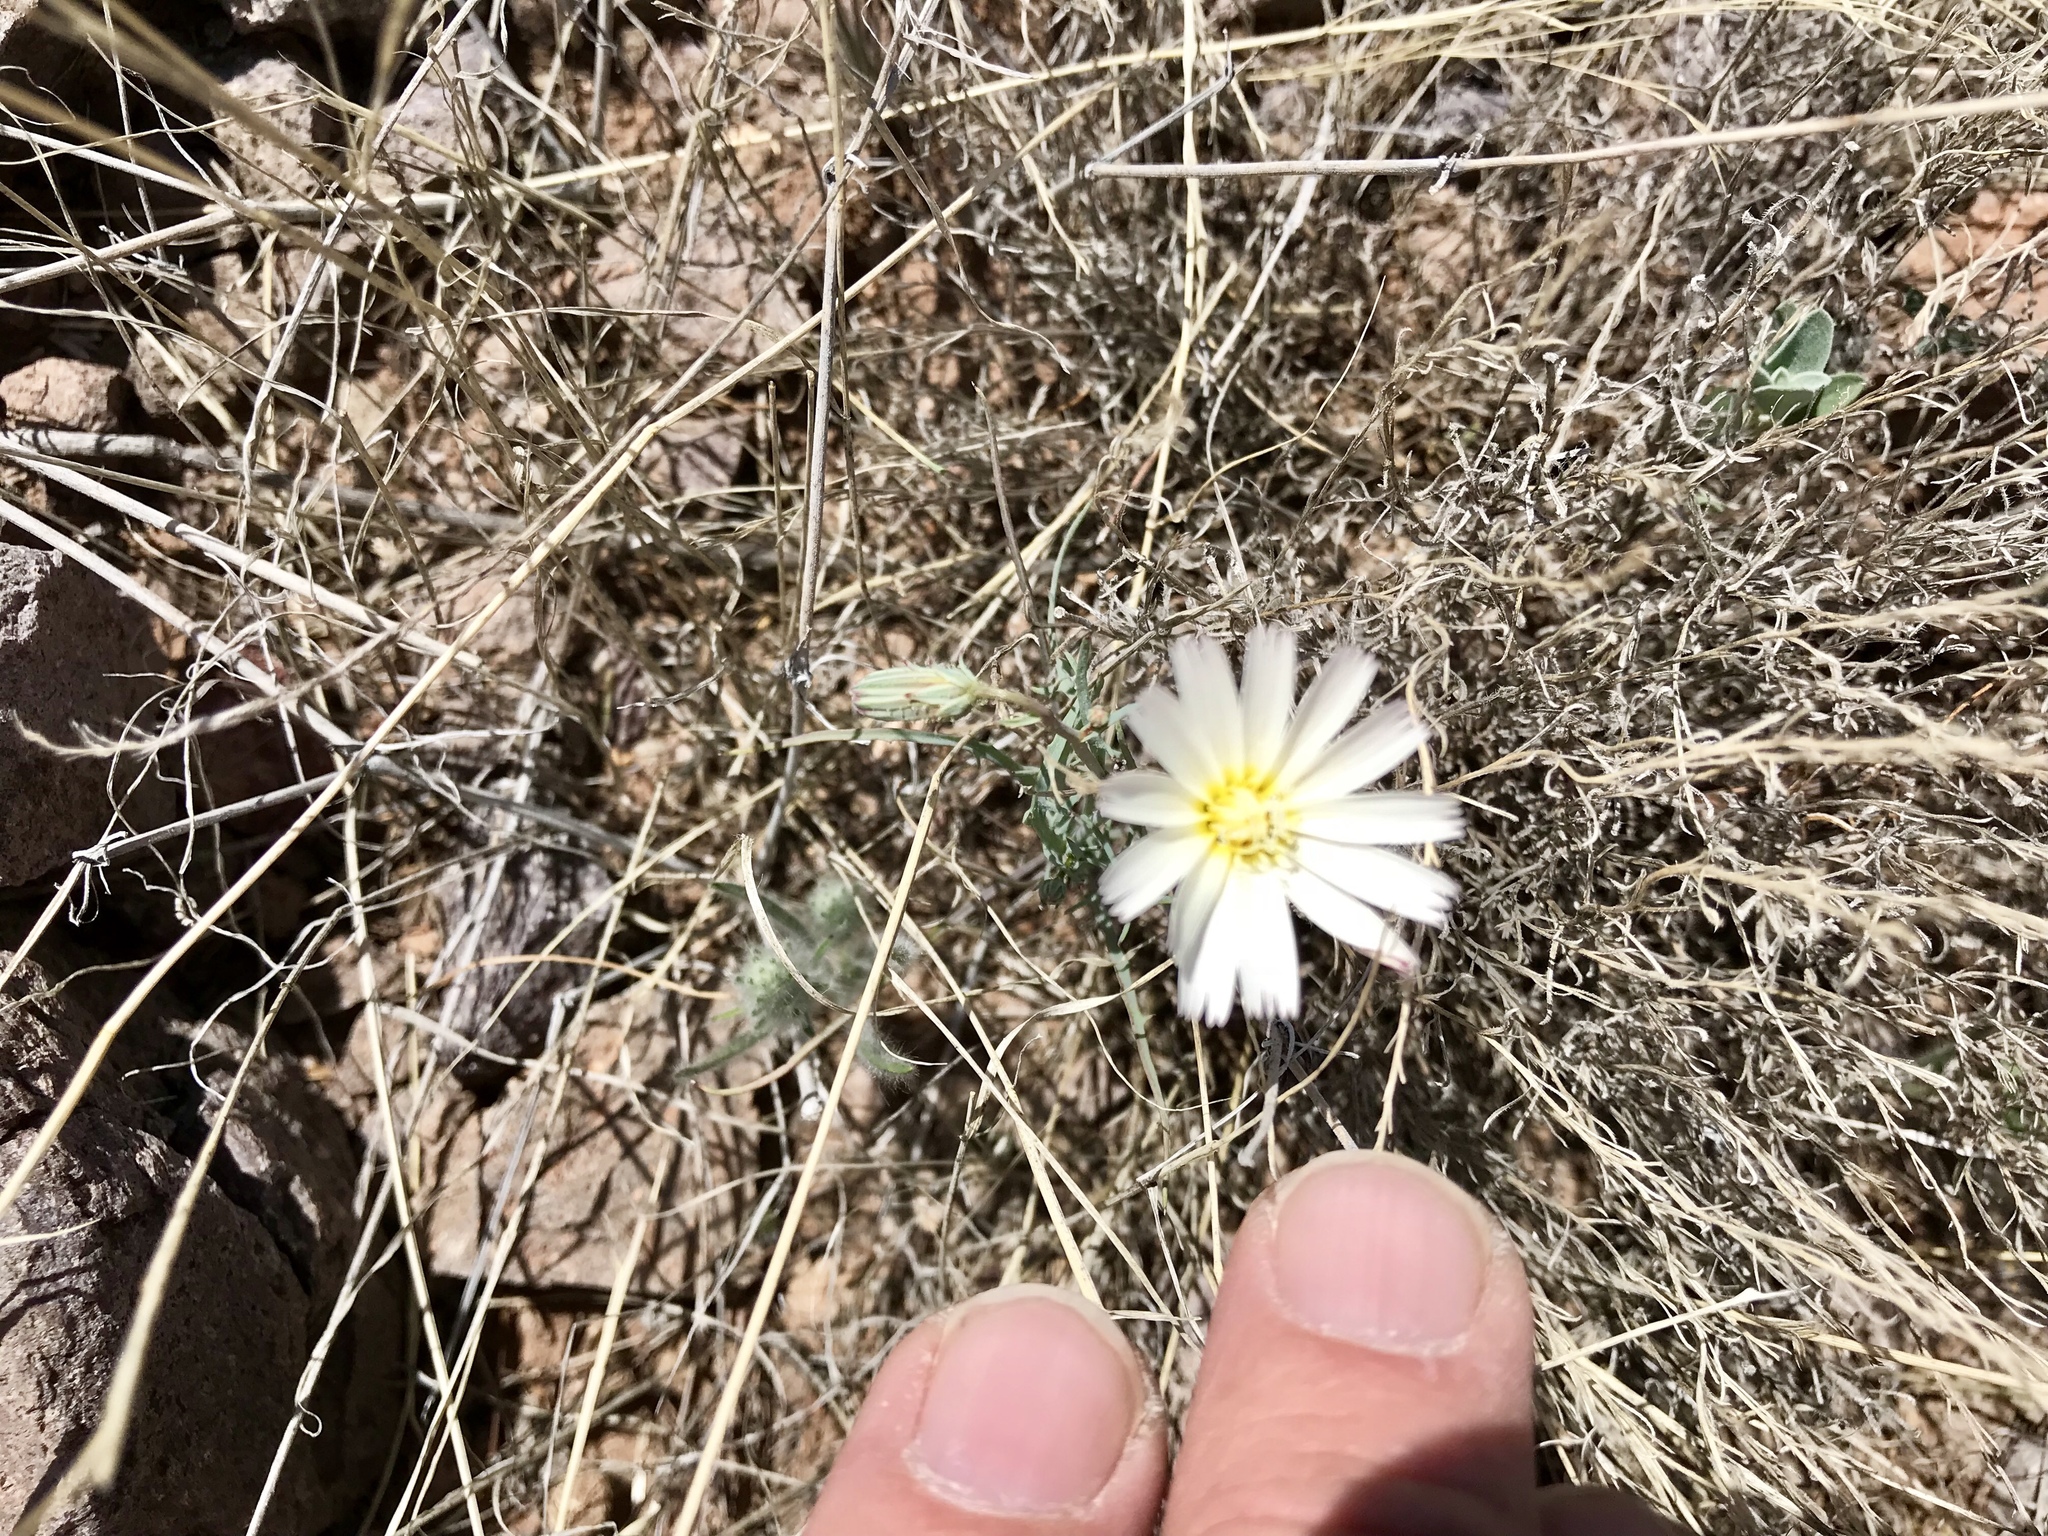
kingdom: Plantae
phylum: Tracheophyta
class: Magnoliopsida
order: Asterales
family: Asteraceae
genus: Calycoseris
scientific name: Calycoseris wrightii
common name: White tackstem
